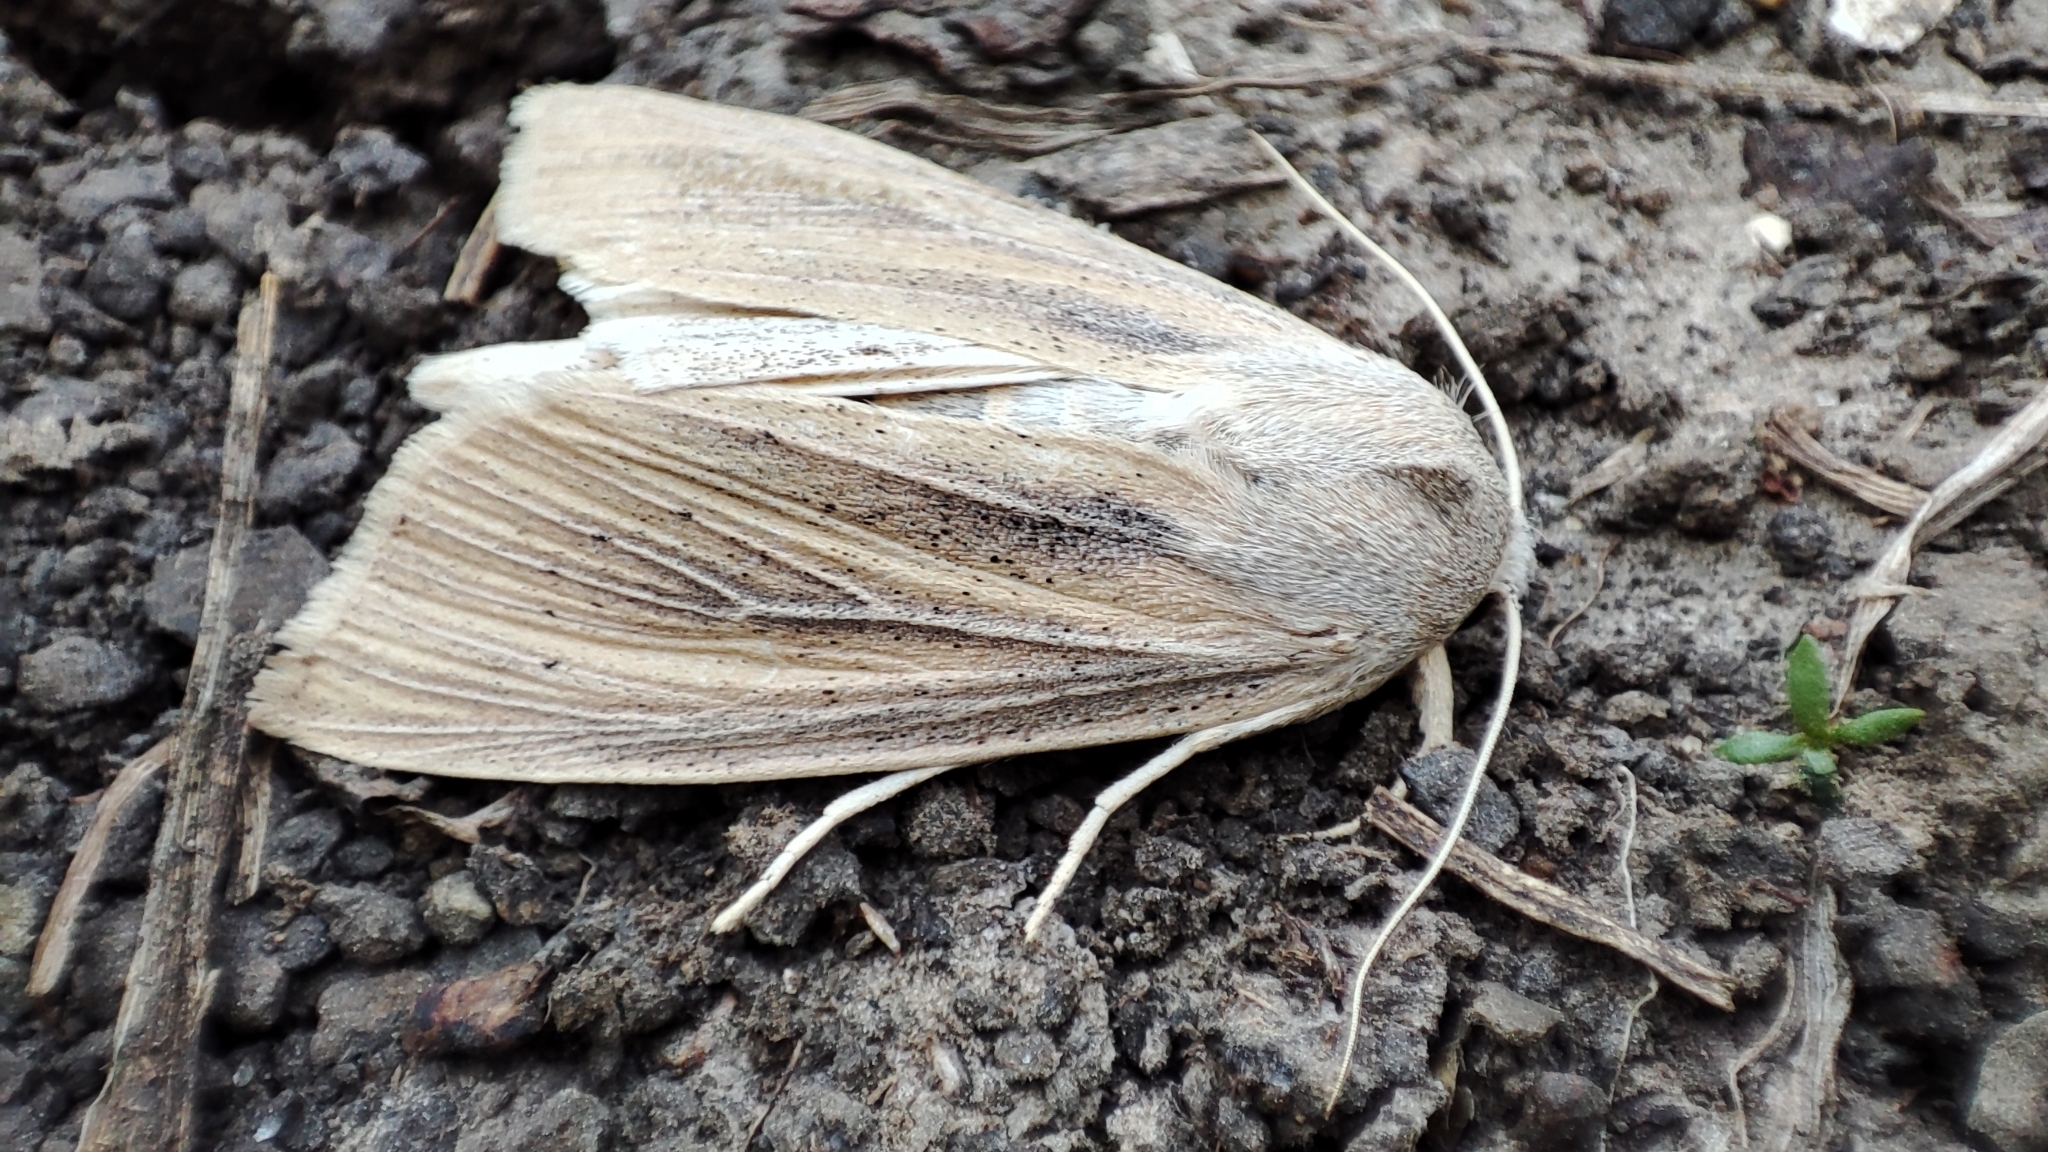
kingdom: Animalia
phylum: Arthropoda
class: Insecta
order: Lepidoptera
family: Noctuidae
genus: Rhizedra
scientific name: Rhizedra lutosa
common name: Large wainscot
